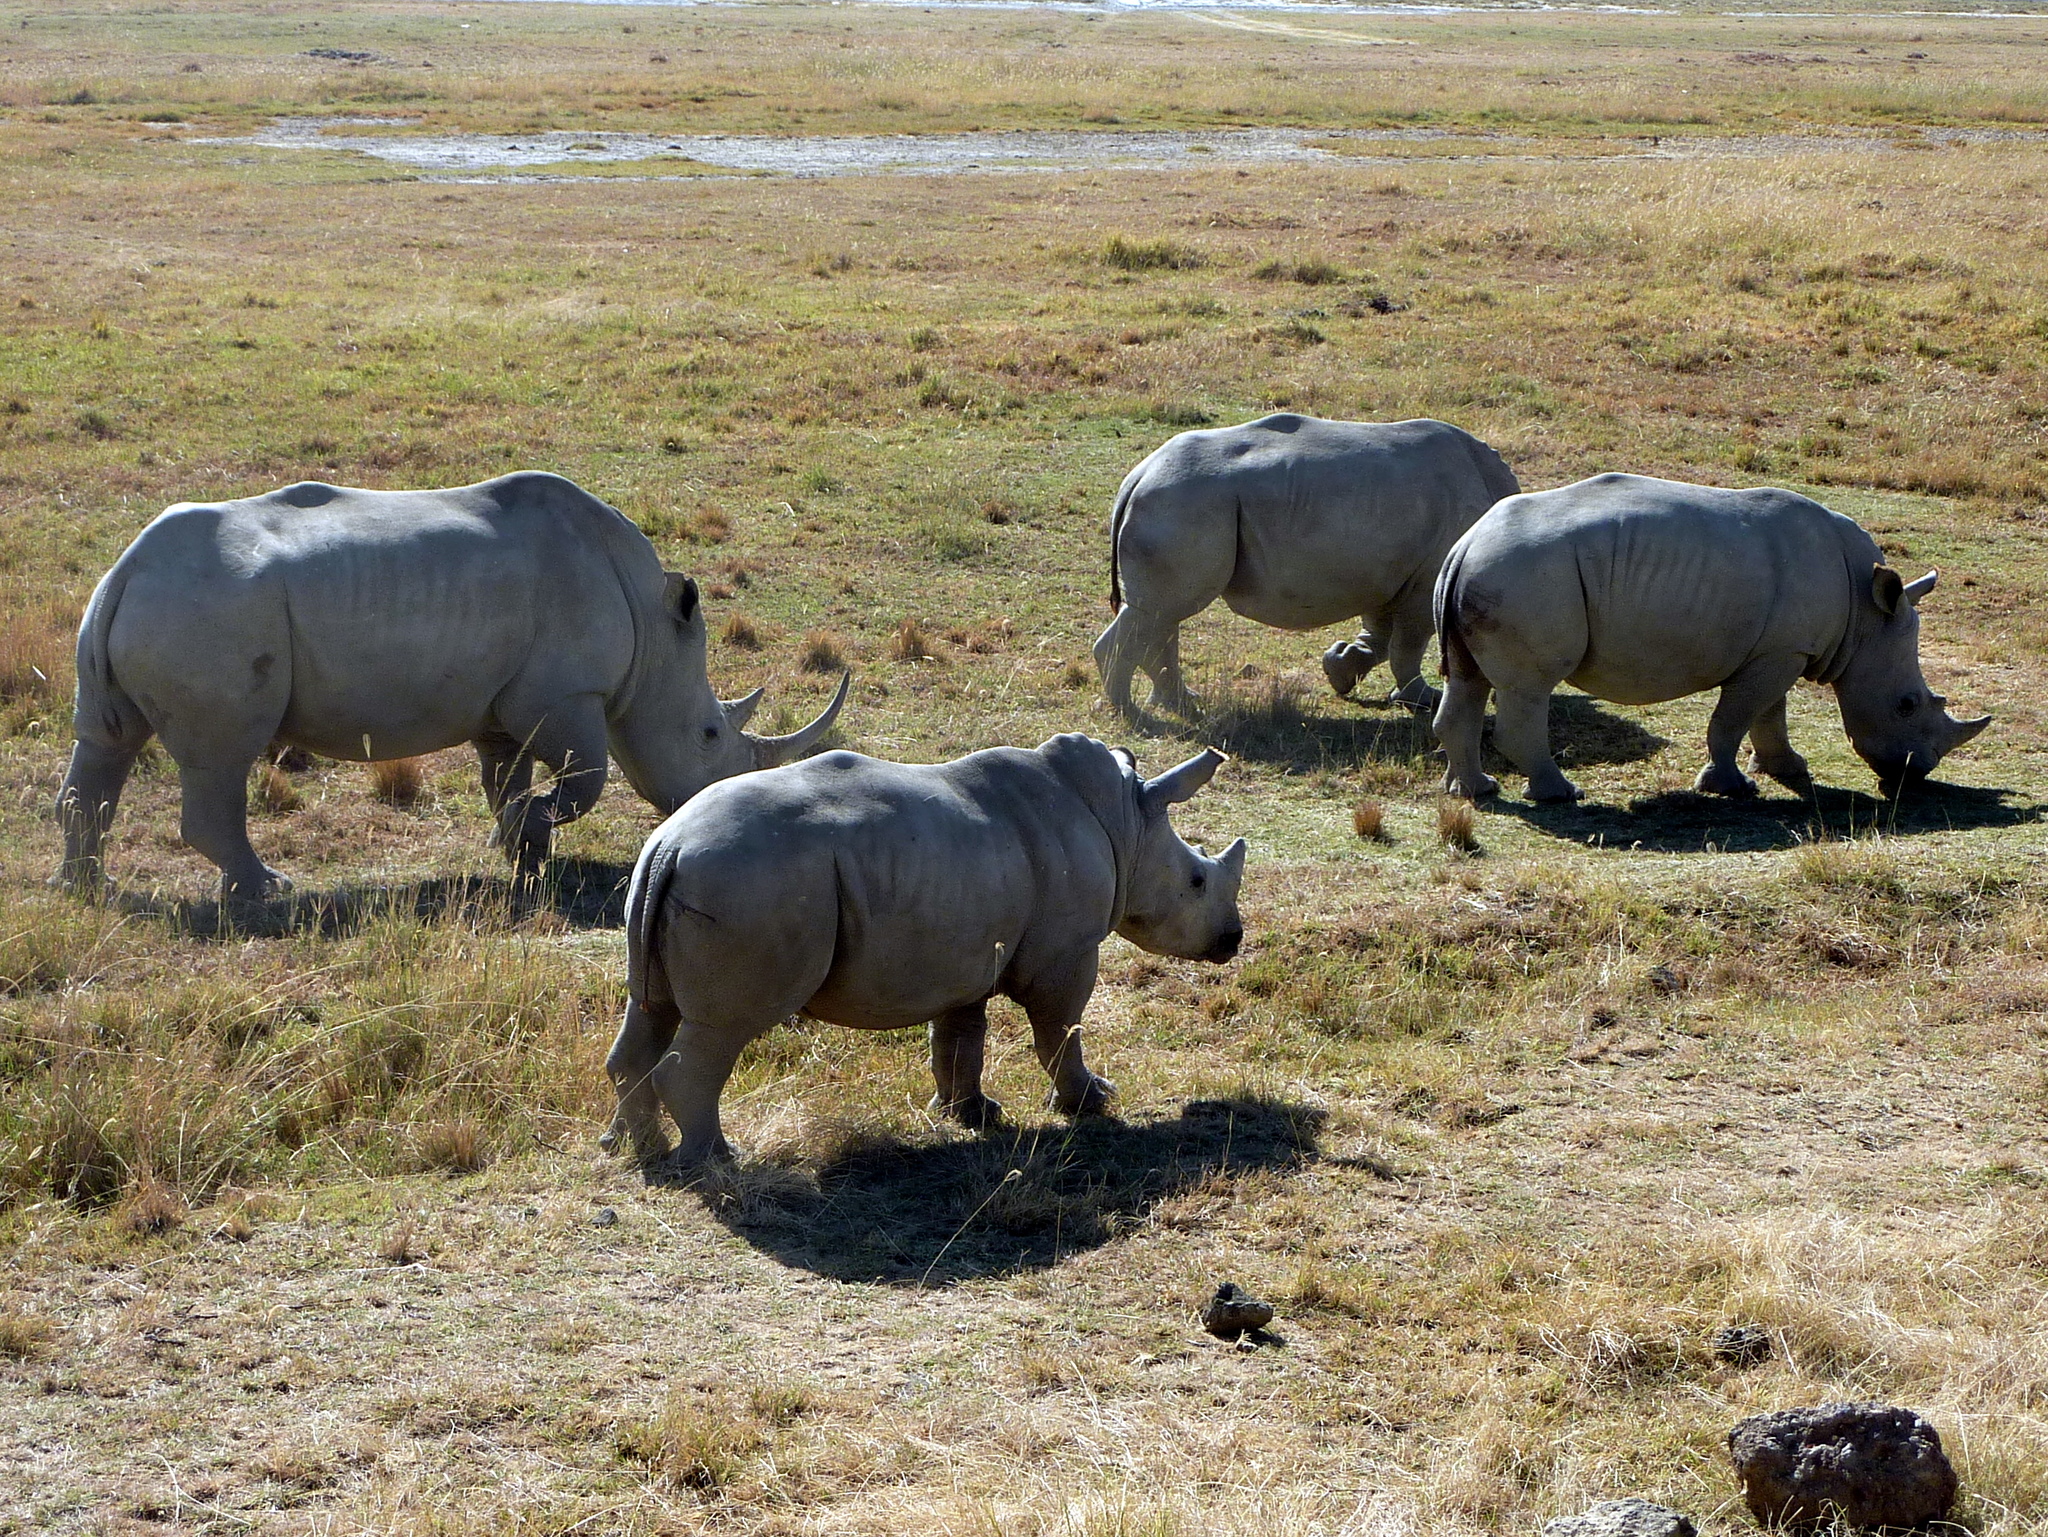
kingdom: Animalia
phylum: Chordata
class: Mammalia
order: Perissodactyla
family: Rhinocerotidae
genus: Ceratotherium
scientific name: Ceratotherium simum
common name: White rhinoceros
